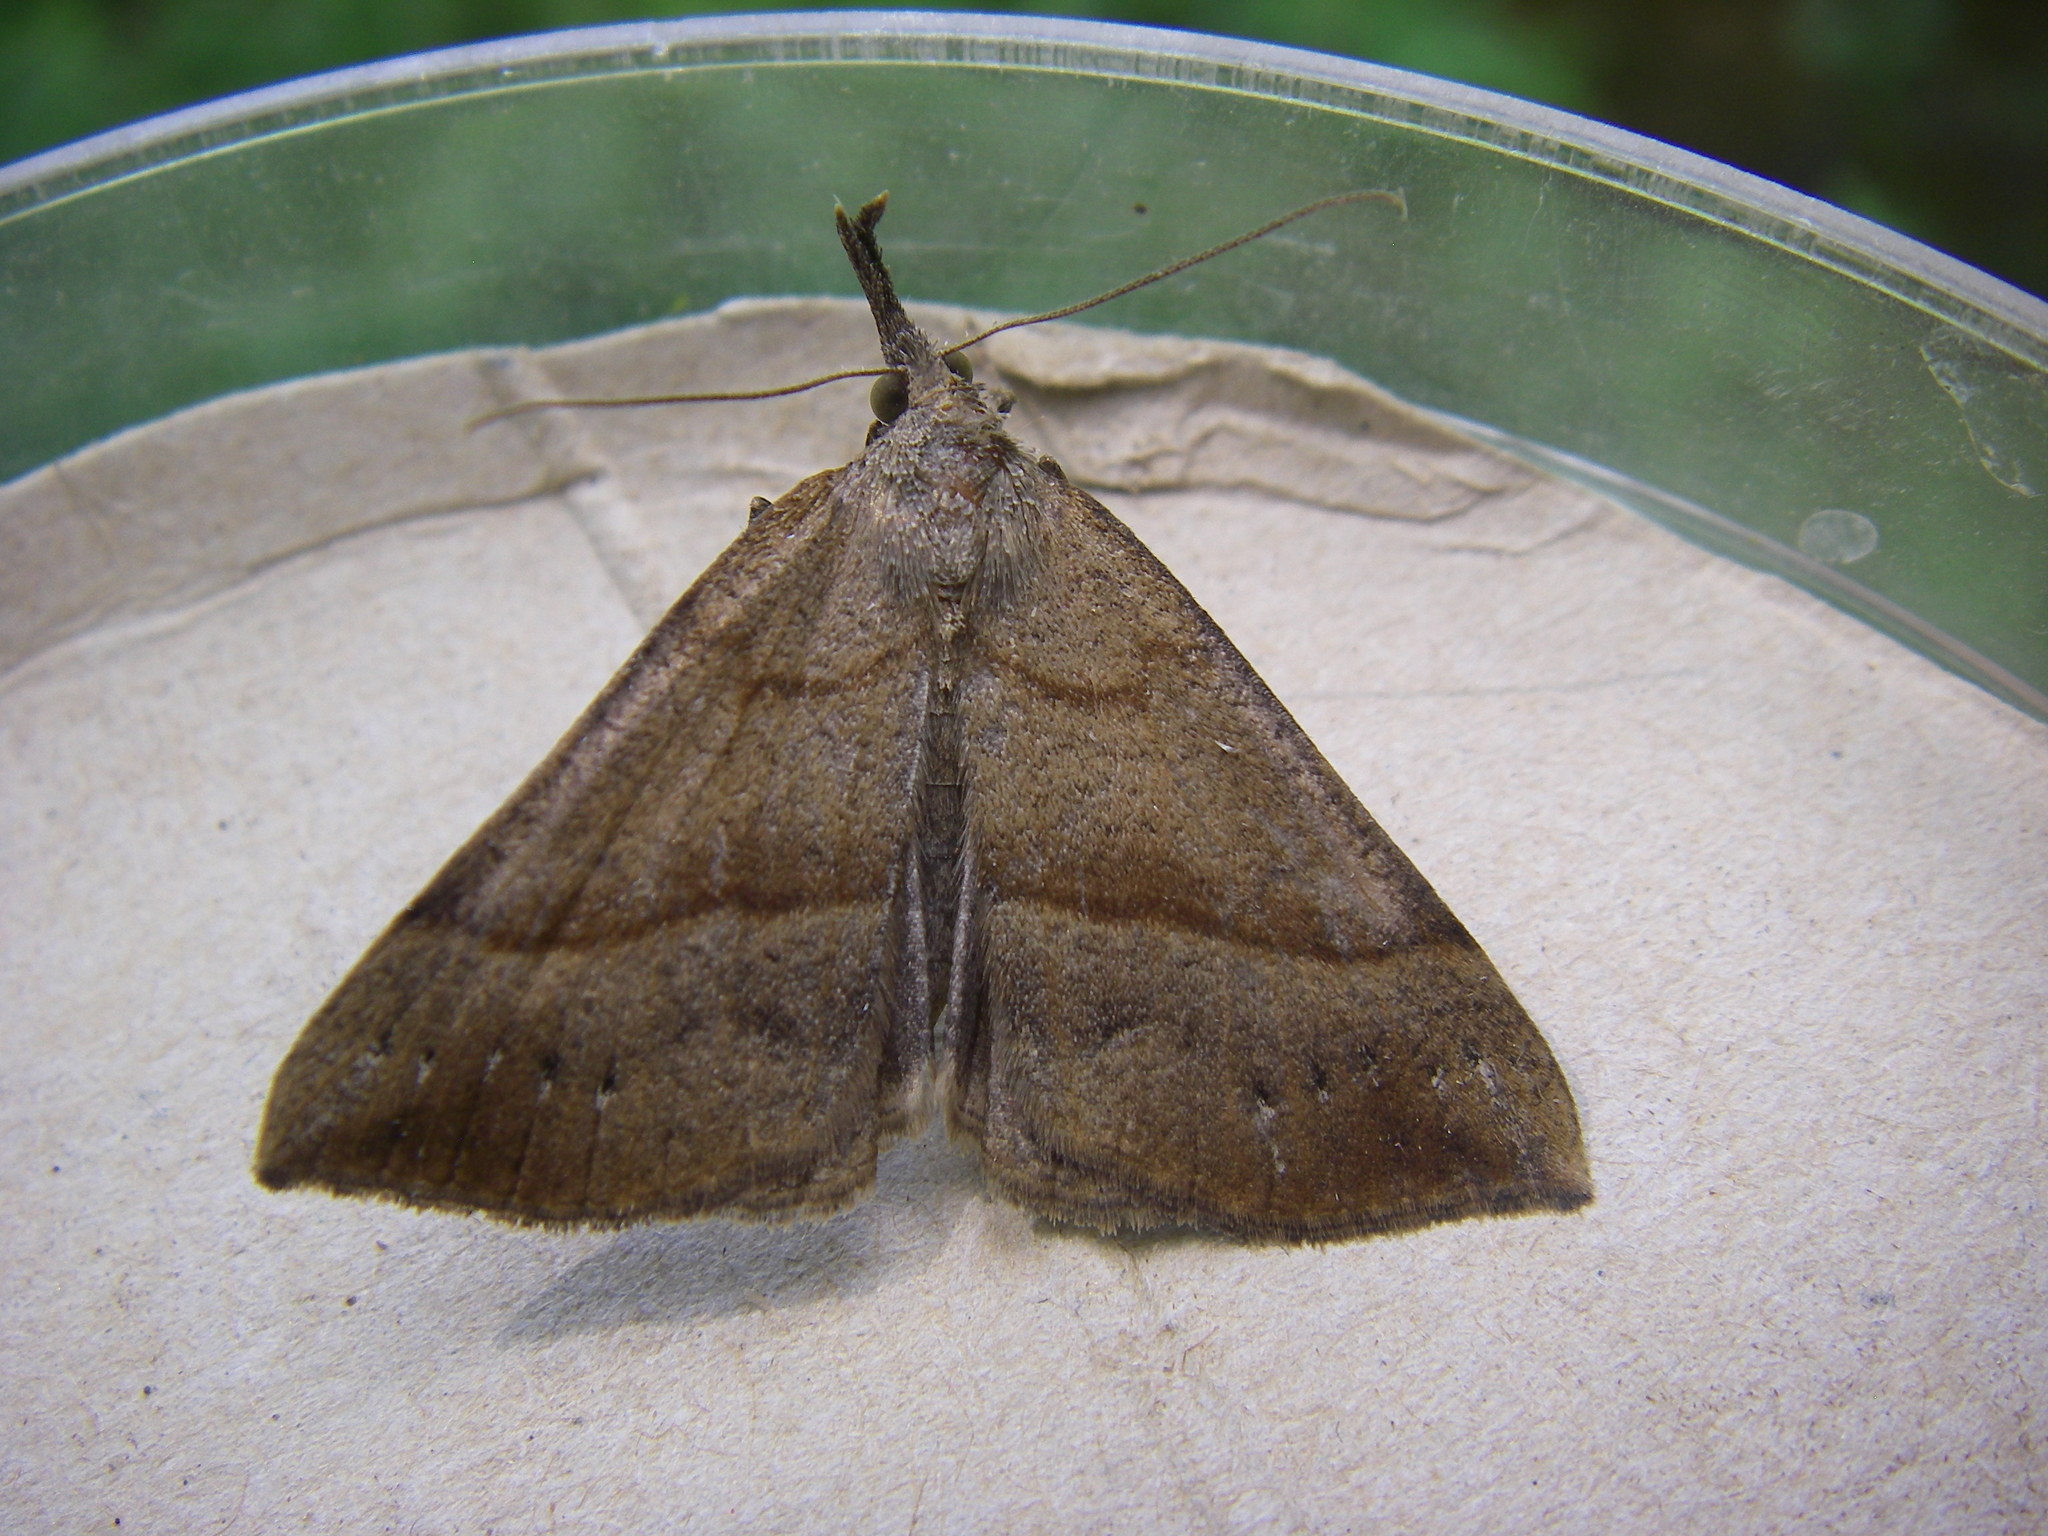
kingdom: Animalia
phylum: Arthropoda
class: Insecta
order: Lepidoptera
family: Erebidae
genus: Hypena
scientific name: Hypena proboscidalis
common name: Snout
